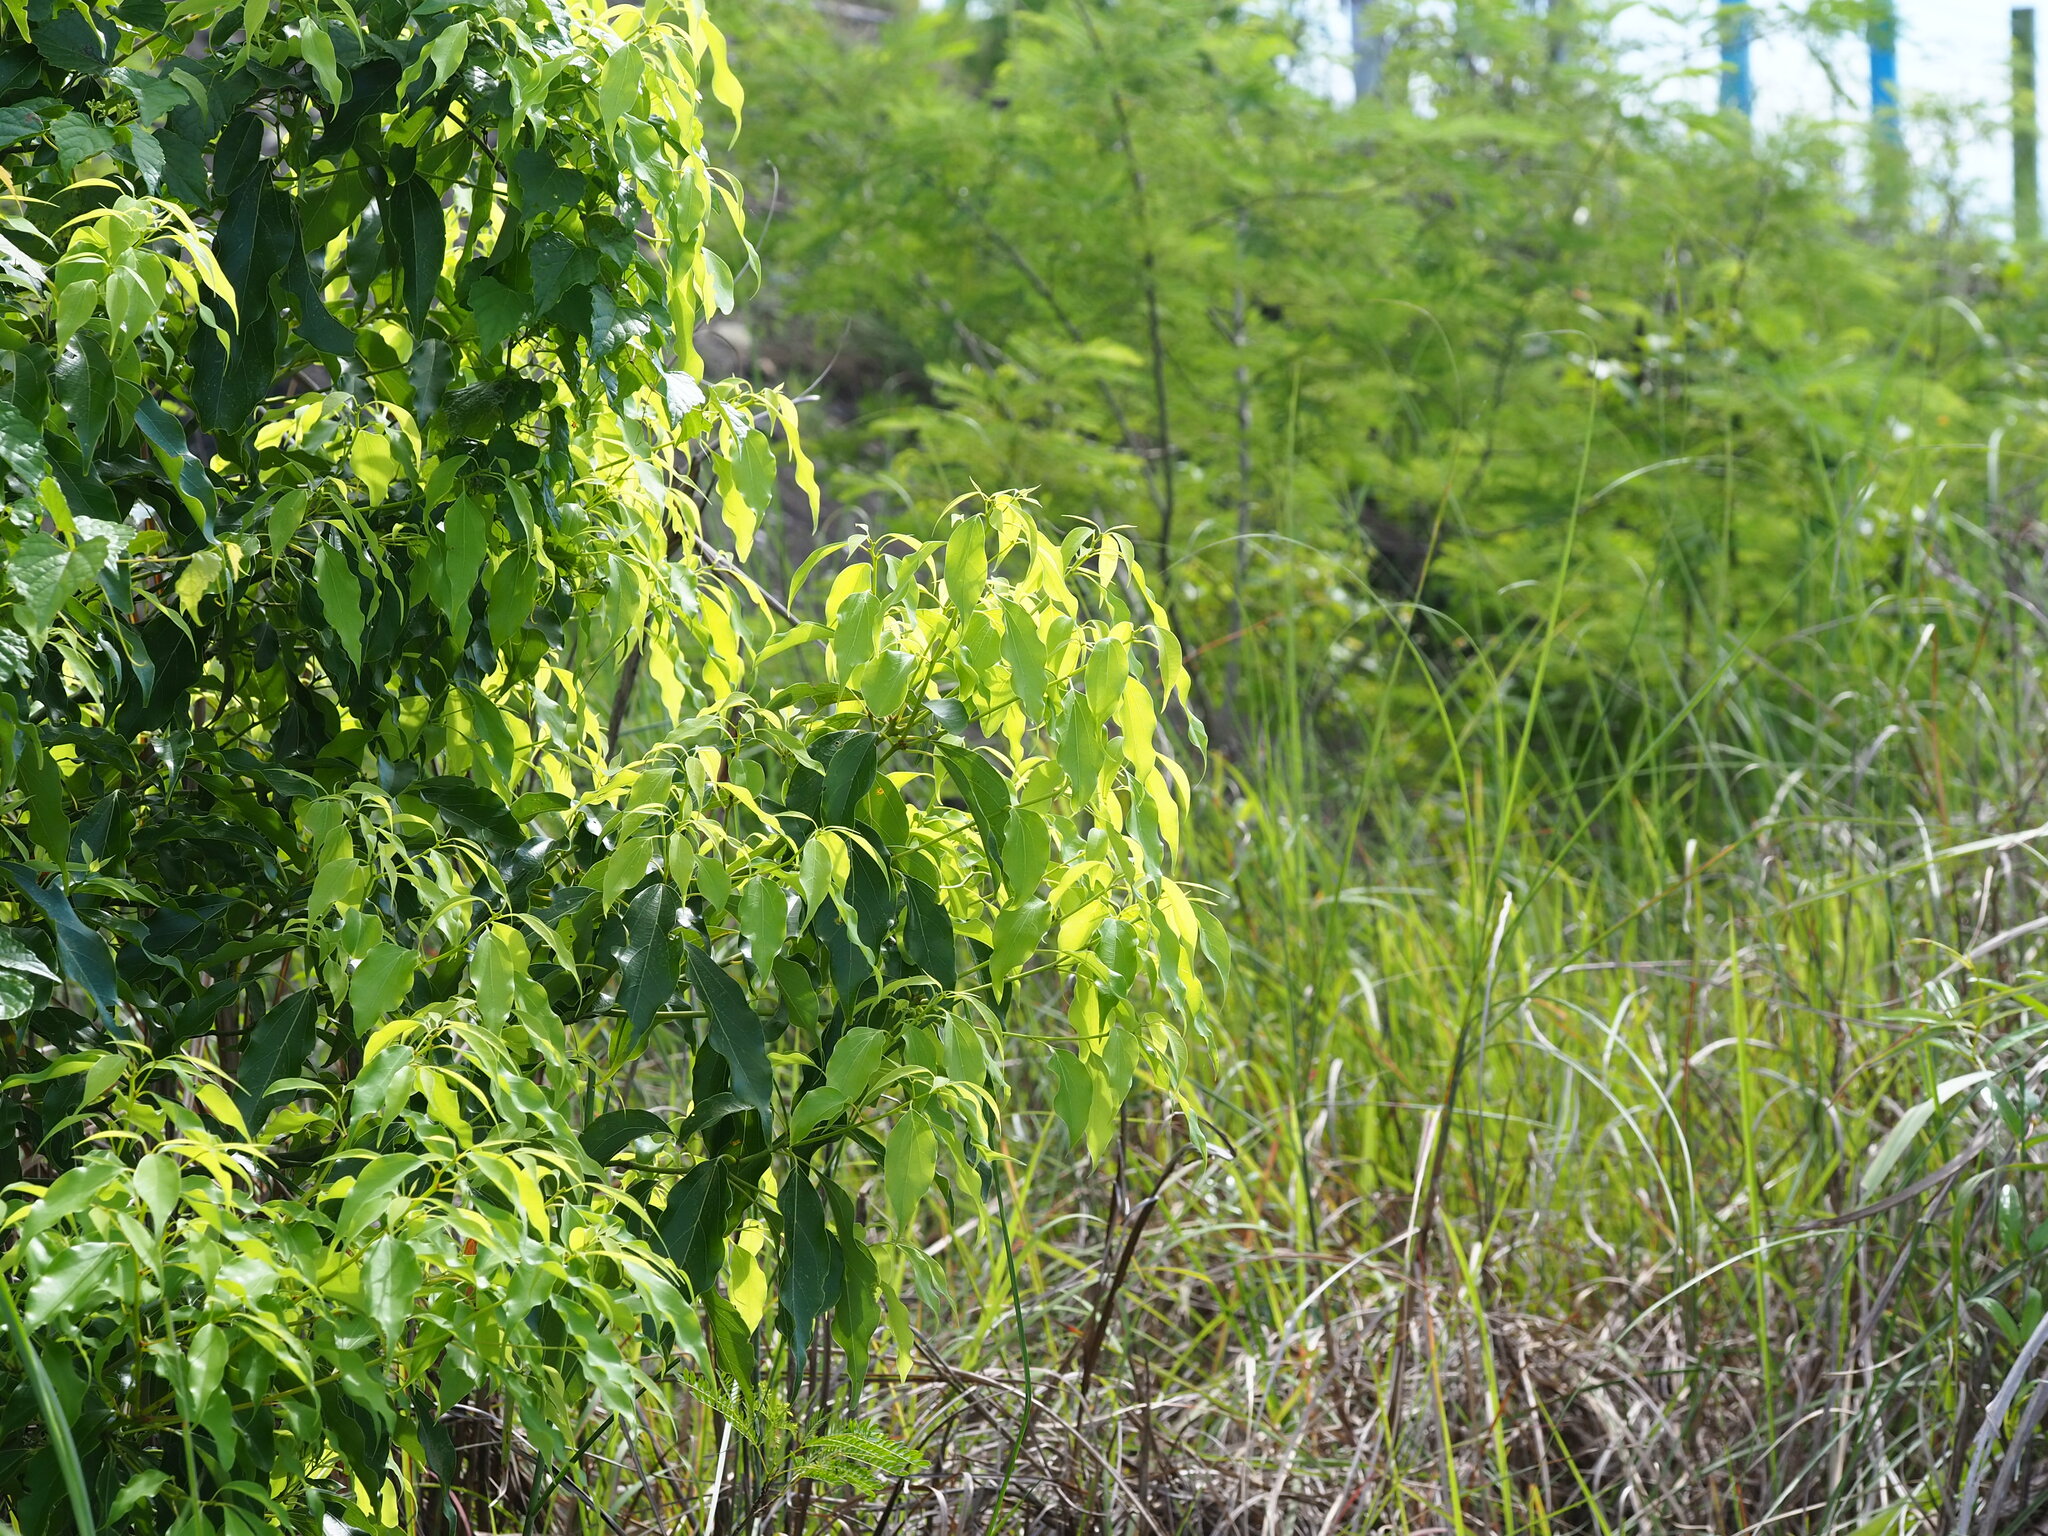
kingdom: Plantae
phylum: Tracheophyta
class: Magnoliopsida
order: Laurales
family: Lauraceae
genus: Cinnamomum
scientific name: Cinnamomum camphora
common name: Camphortree
